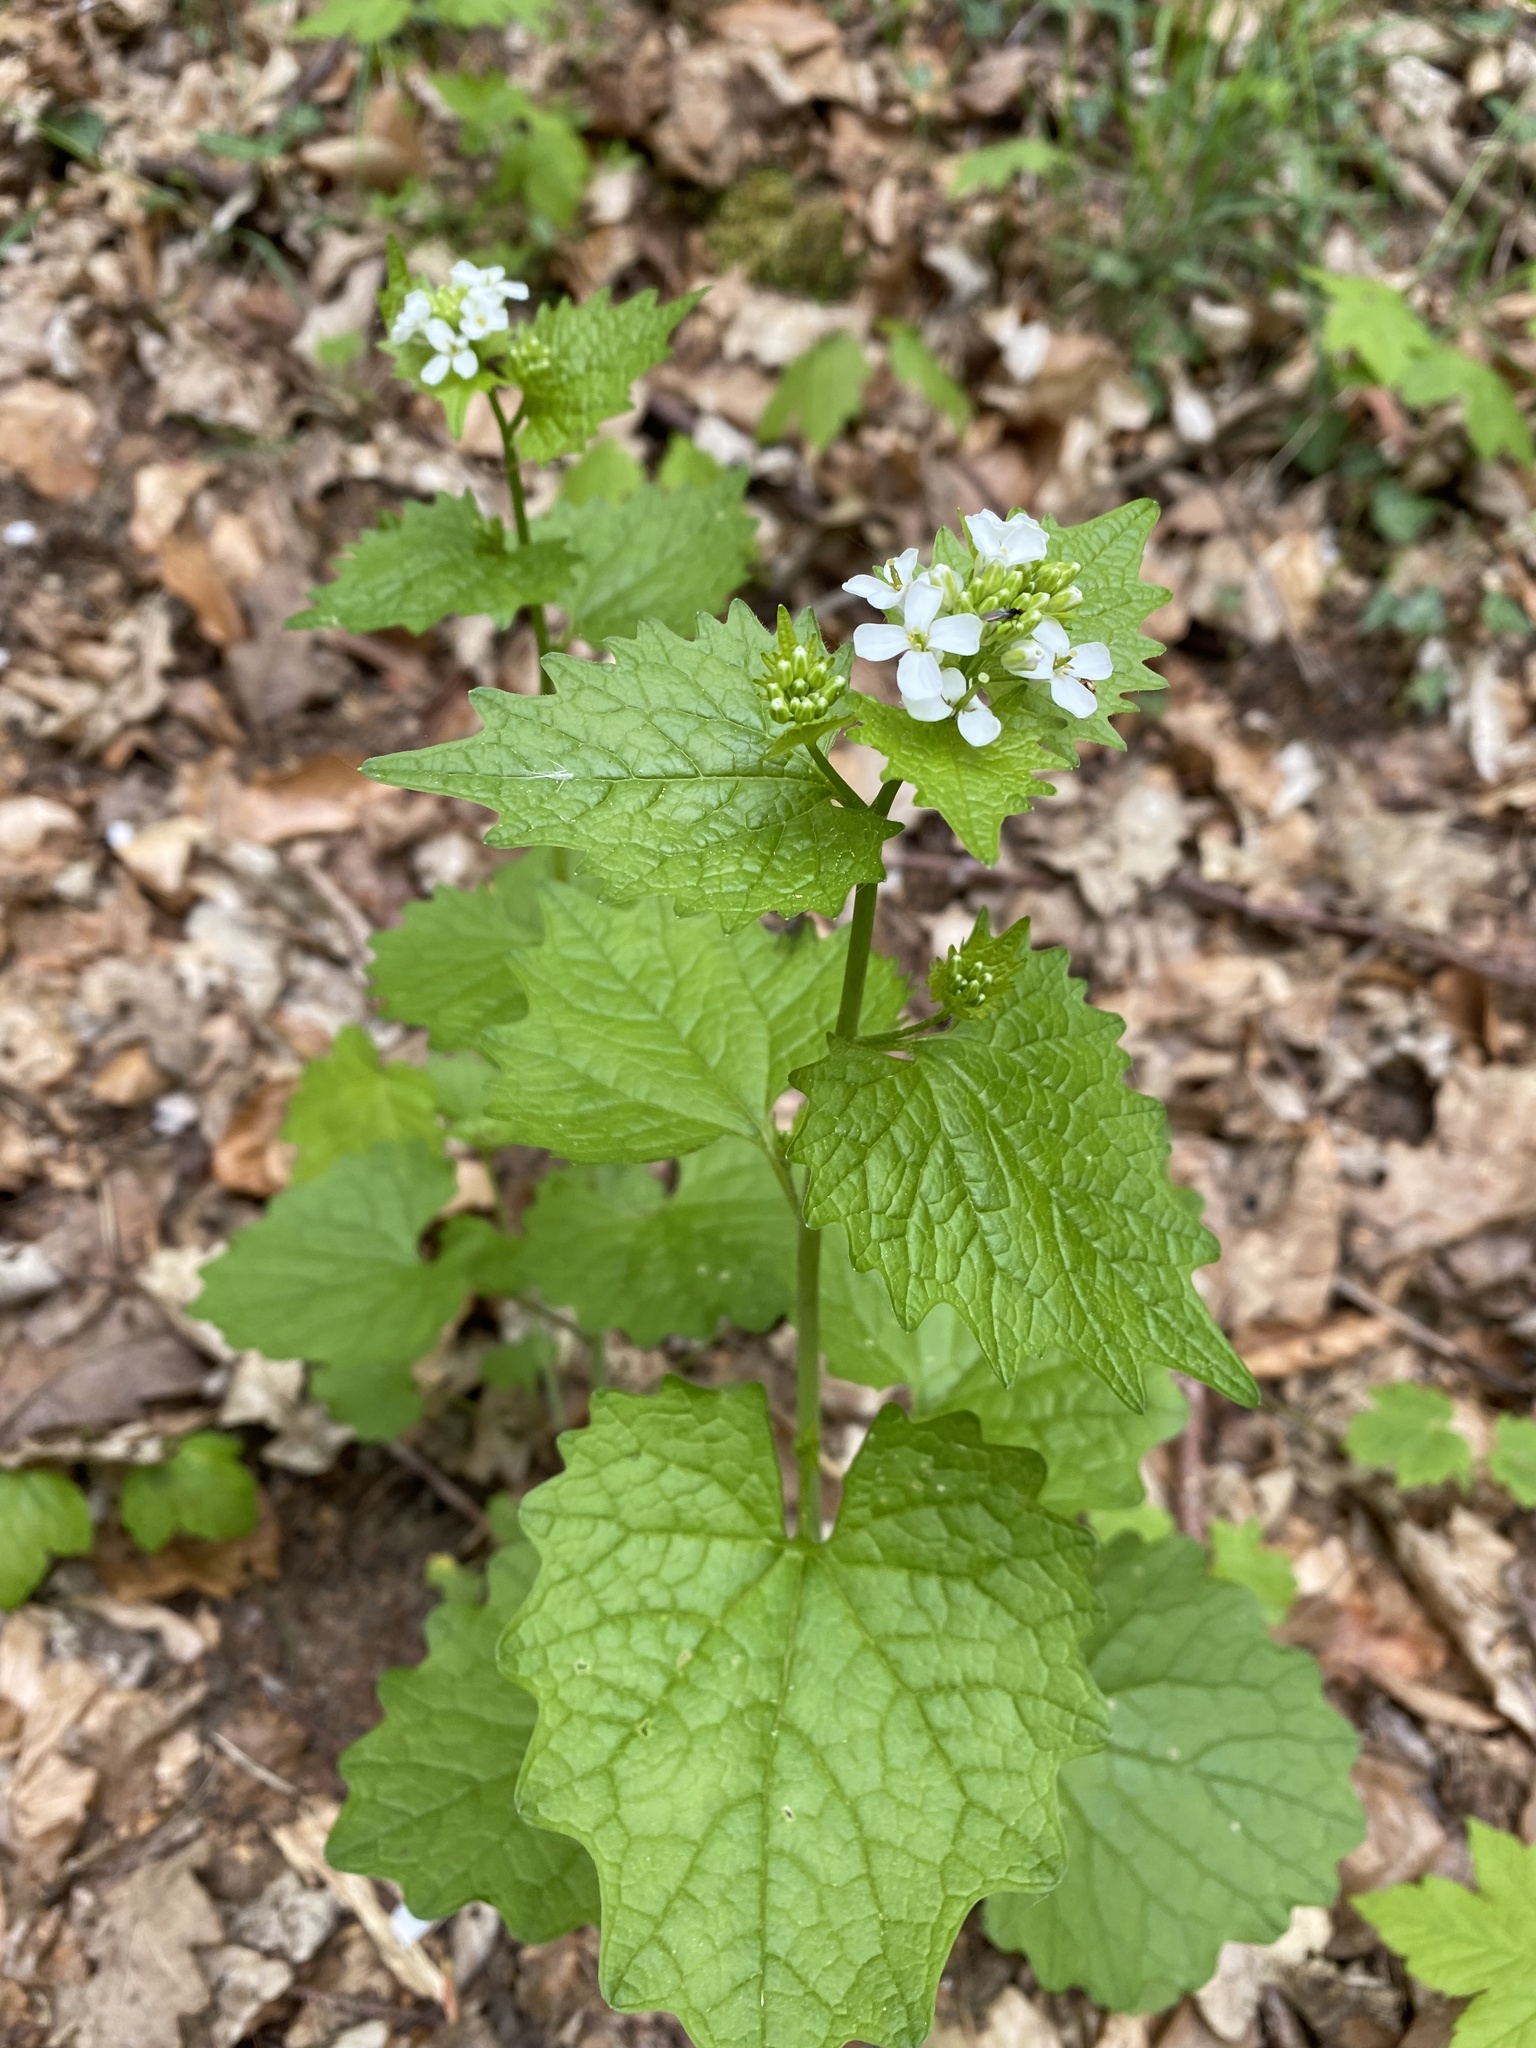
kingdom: Plantae
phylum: Tracheophyta
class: Magnoliopsida
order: Brassicales
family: Brassicaceae
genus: Alliaria
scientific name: Alliaria petiolata
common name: Garlic mustard
